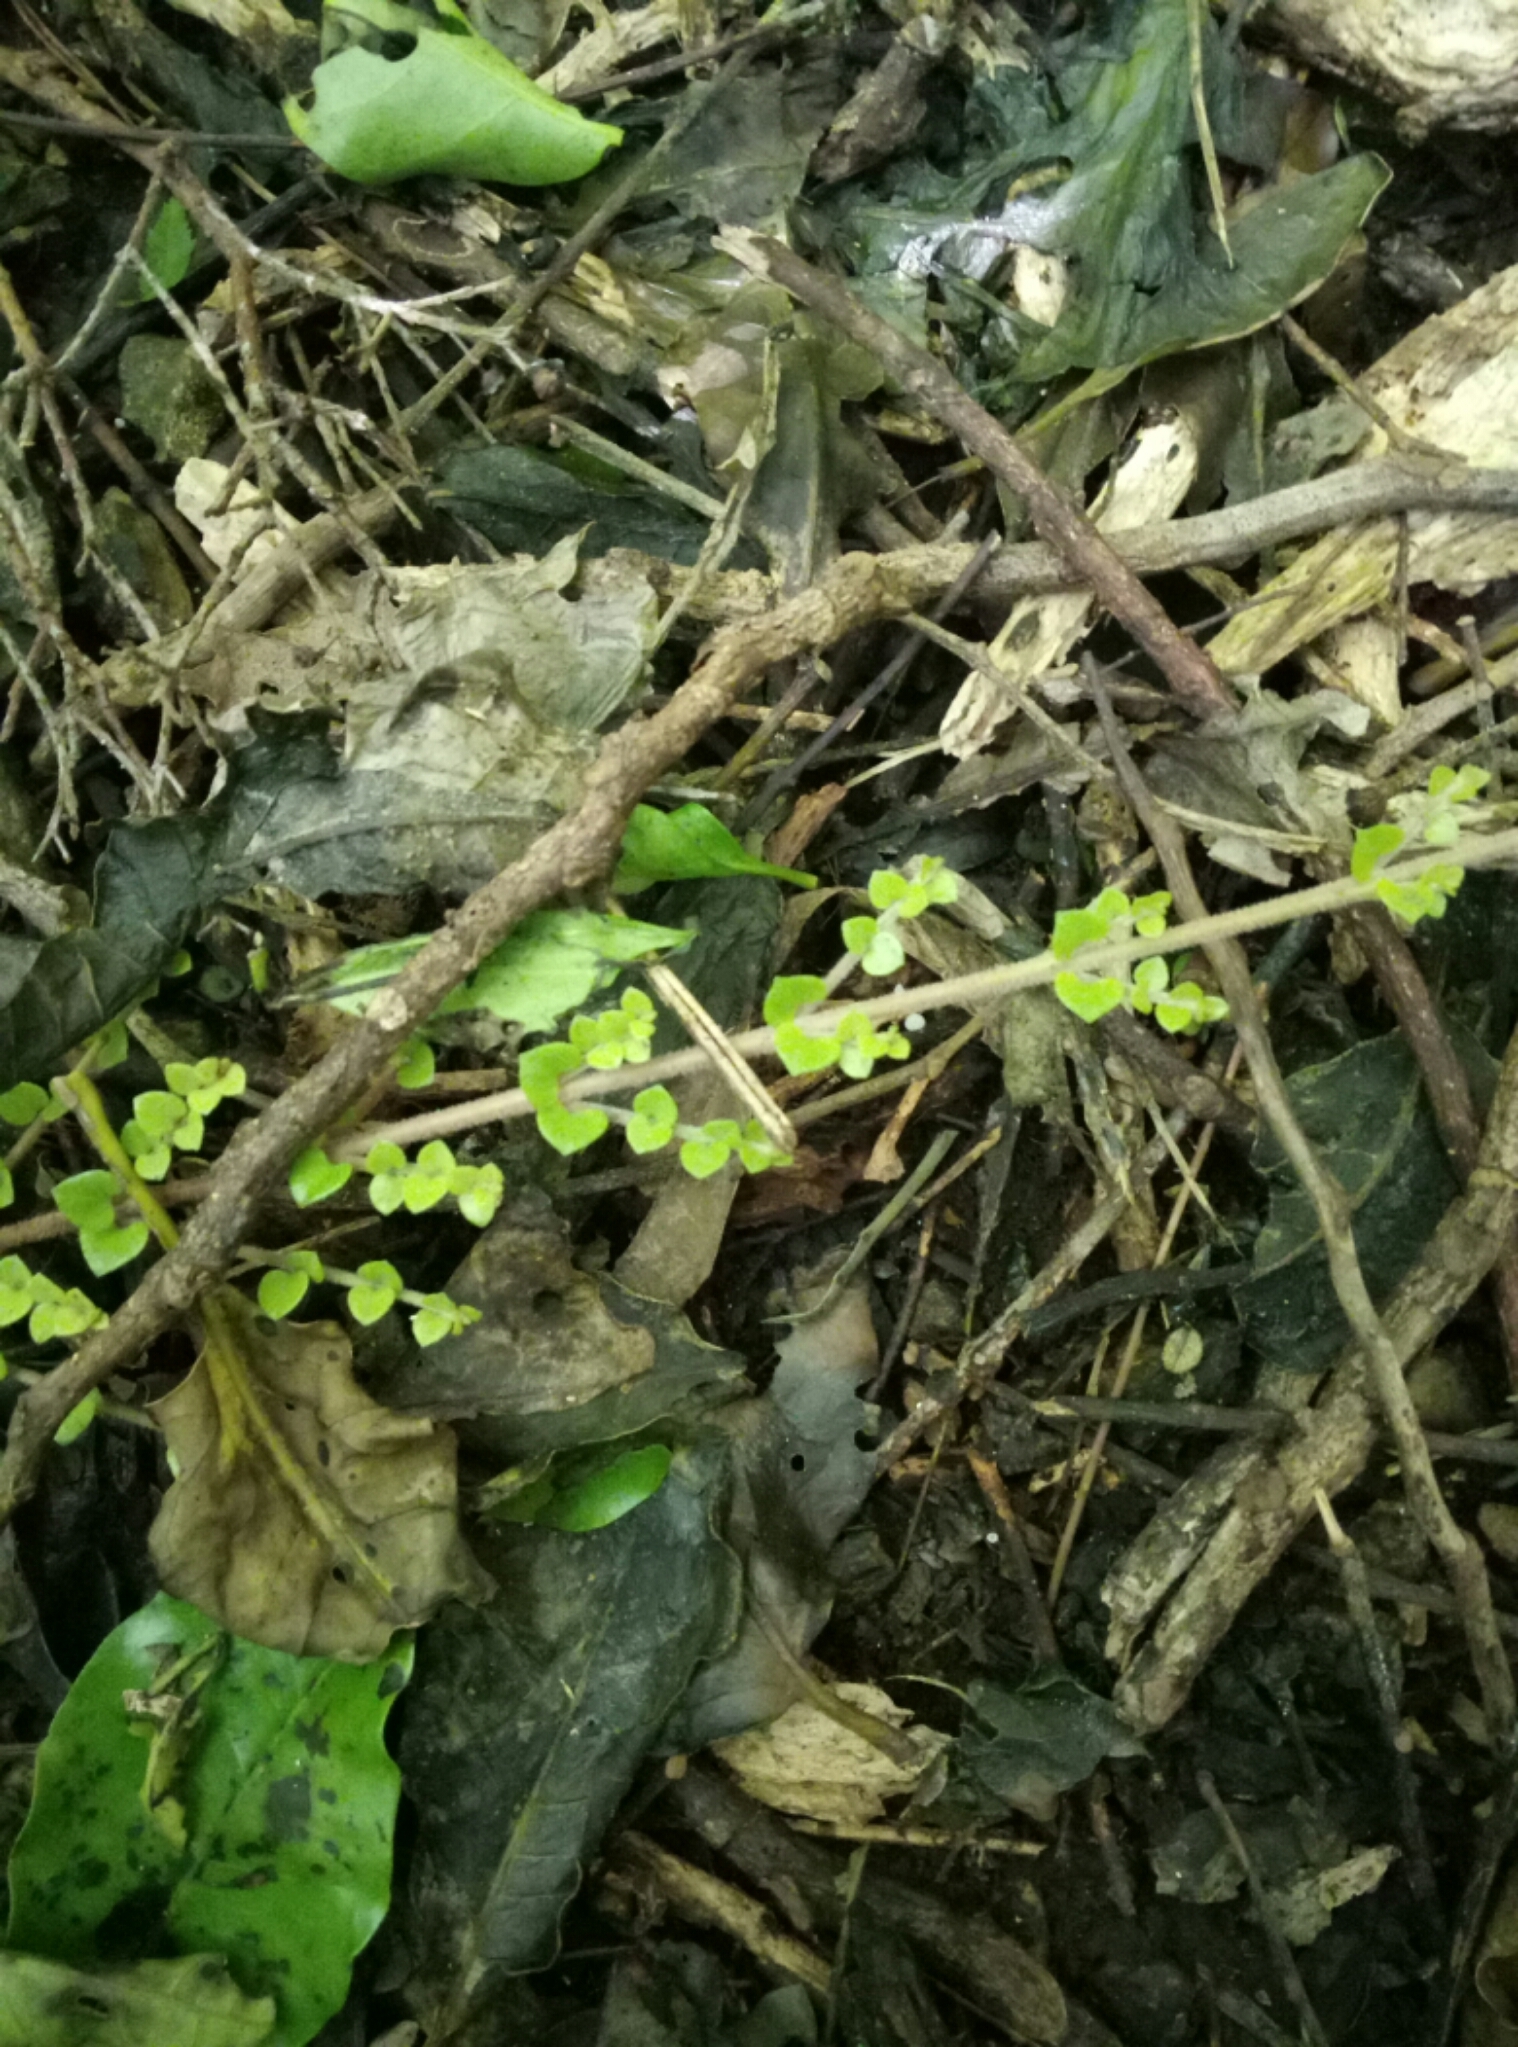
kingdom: Plantae
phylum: Tracheophyta
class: Magnoliopsida
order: Myrtales
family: Myrtaceae
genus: Metrosideros
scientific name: Metrosideros perforata
